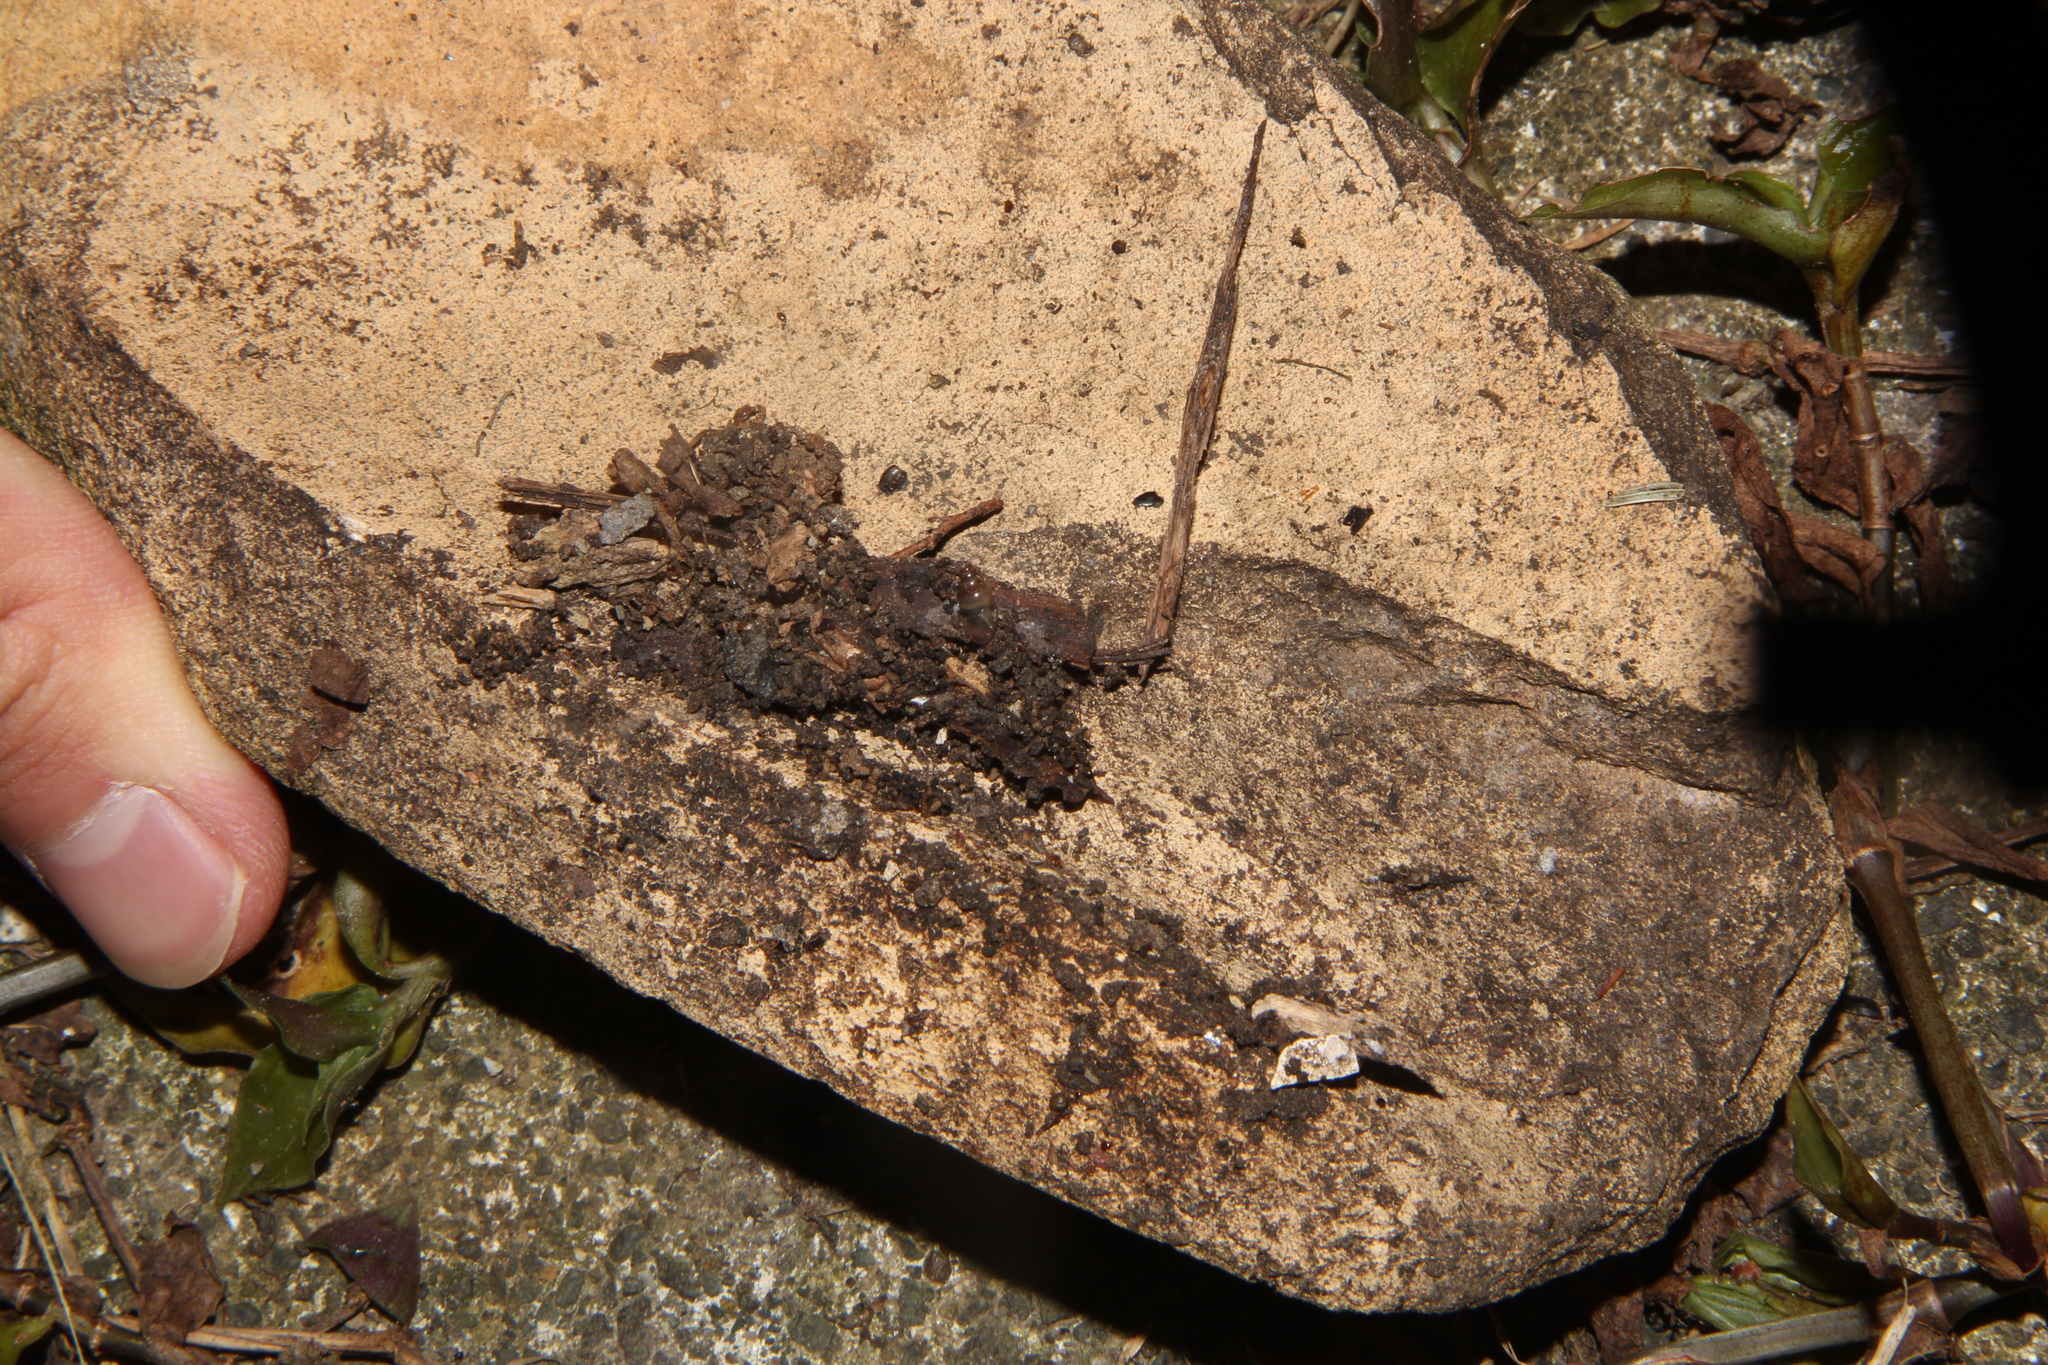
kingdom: Animalia
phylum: Mollusca
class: Gastropoda
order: Stylommatophora
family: Cochlicopidae
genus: Cochlicopa
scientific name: Cochlicopa lubrica
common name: Glossy pillar snail
